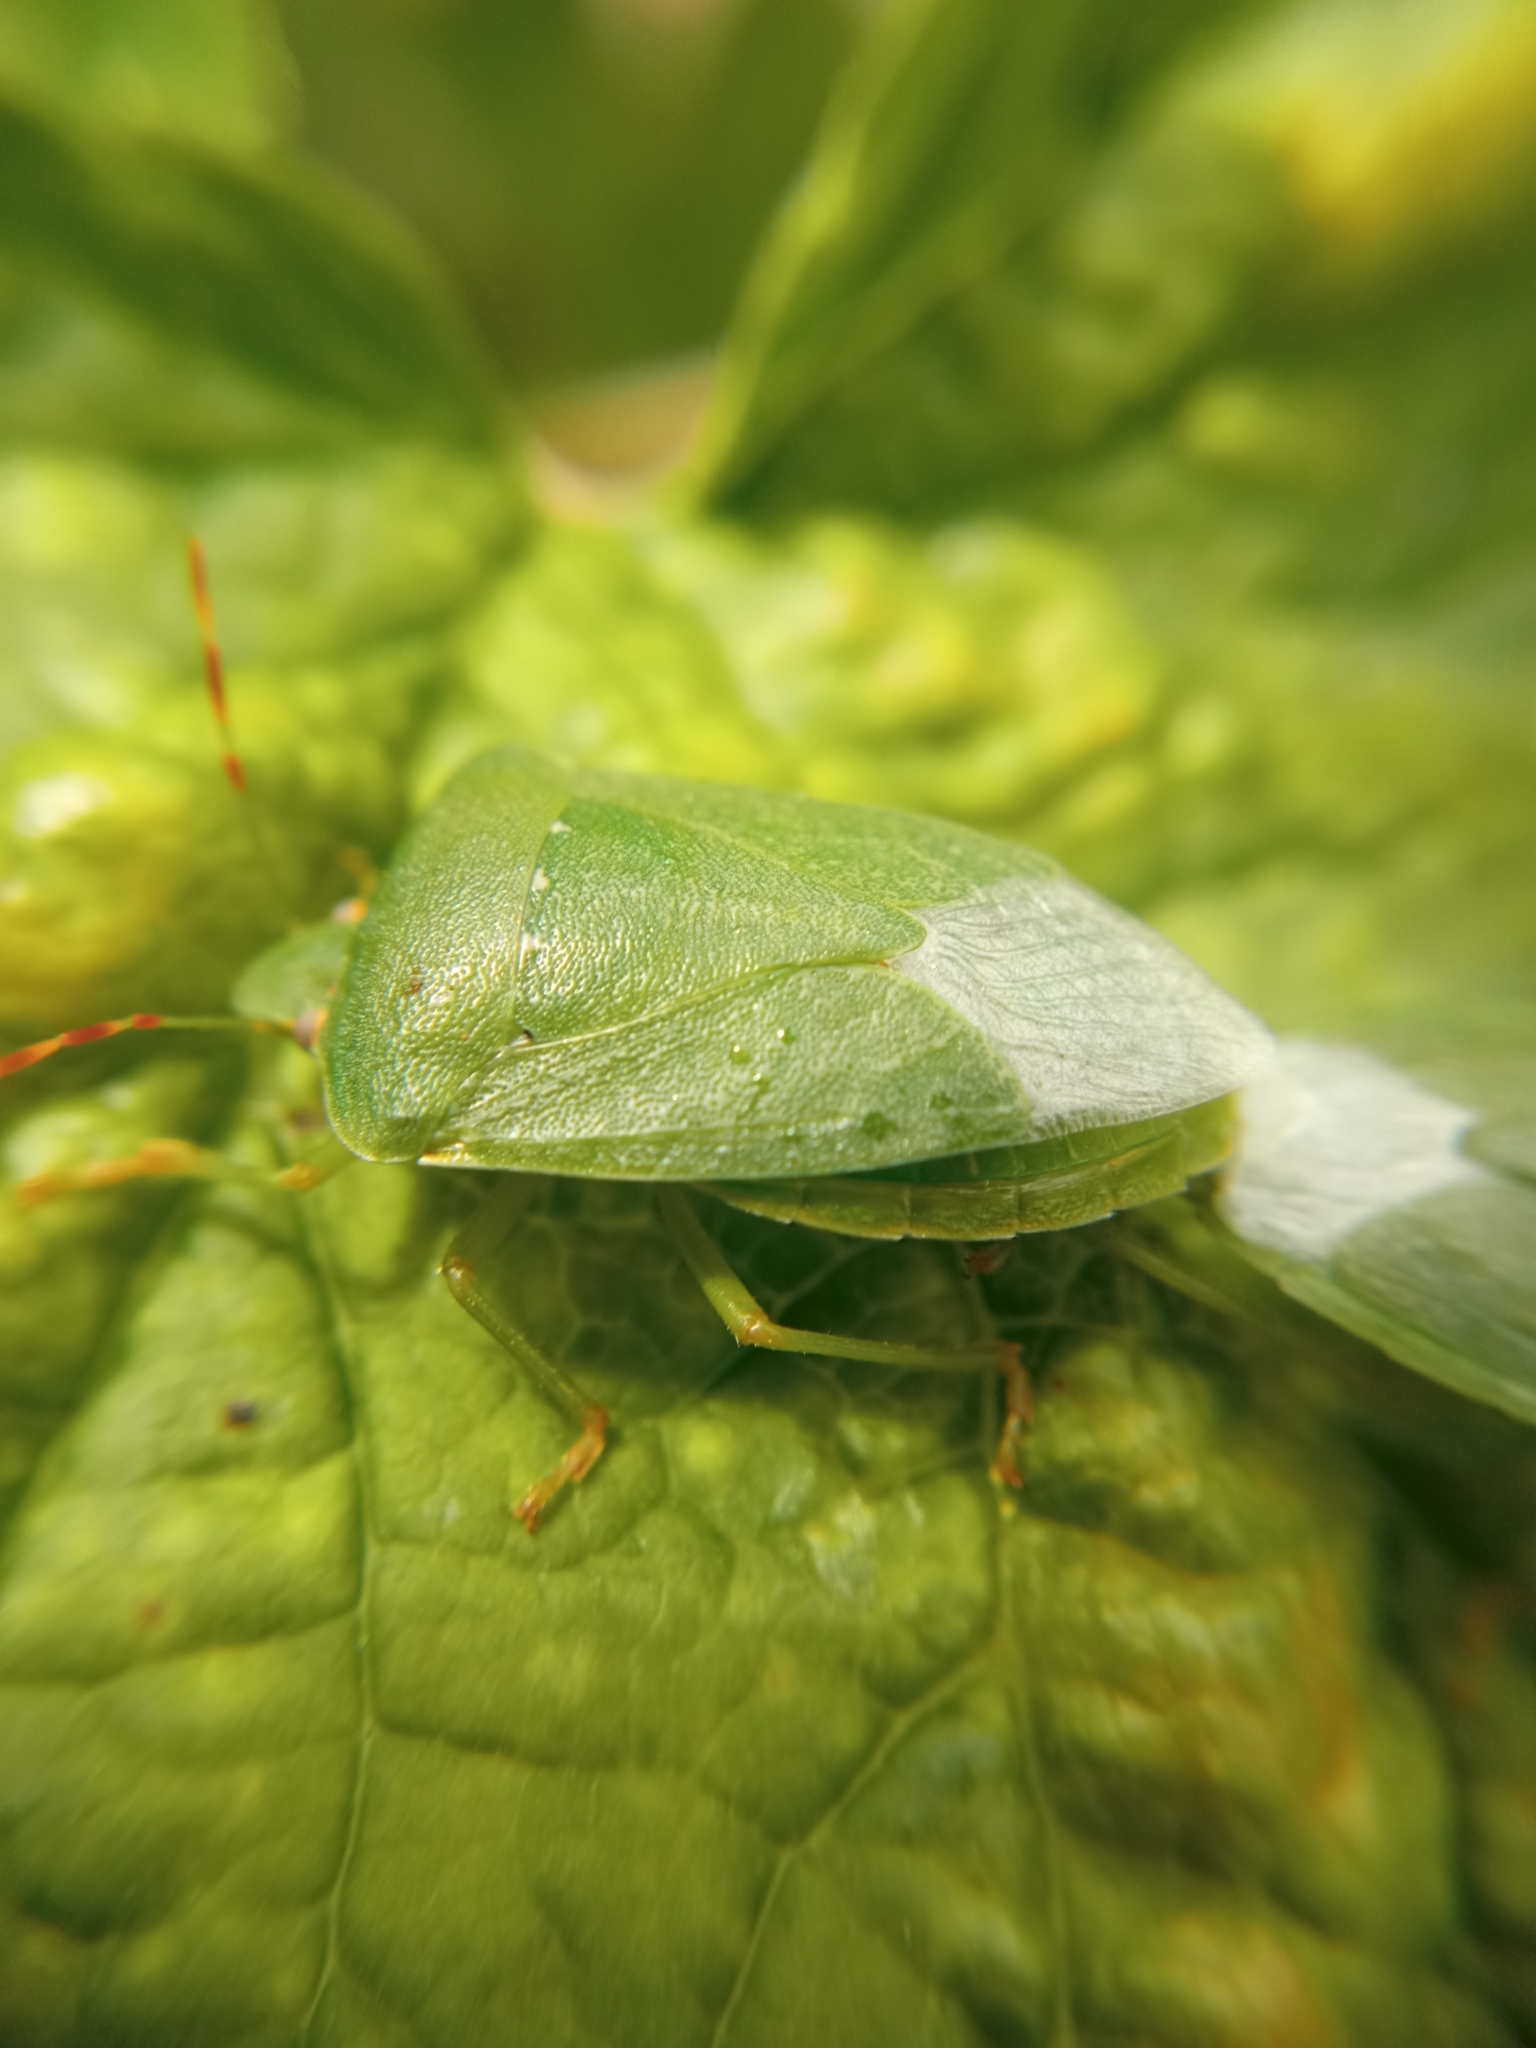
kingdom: Animalia
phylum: Arthropoda
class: Insecta
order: Hemiptera
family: Pentatomidae
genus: Nezara
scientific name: Nezara viridula
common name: Southern green stink bug
